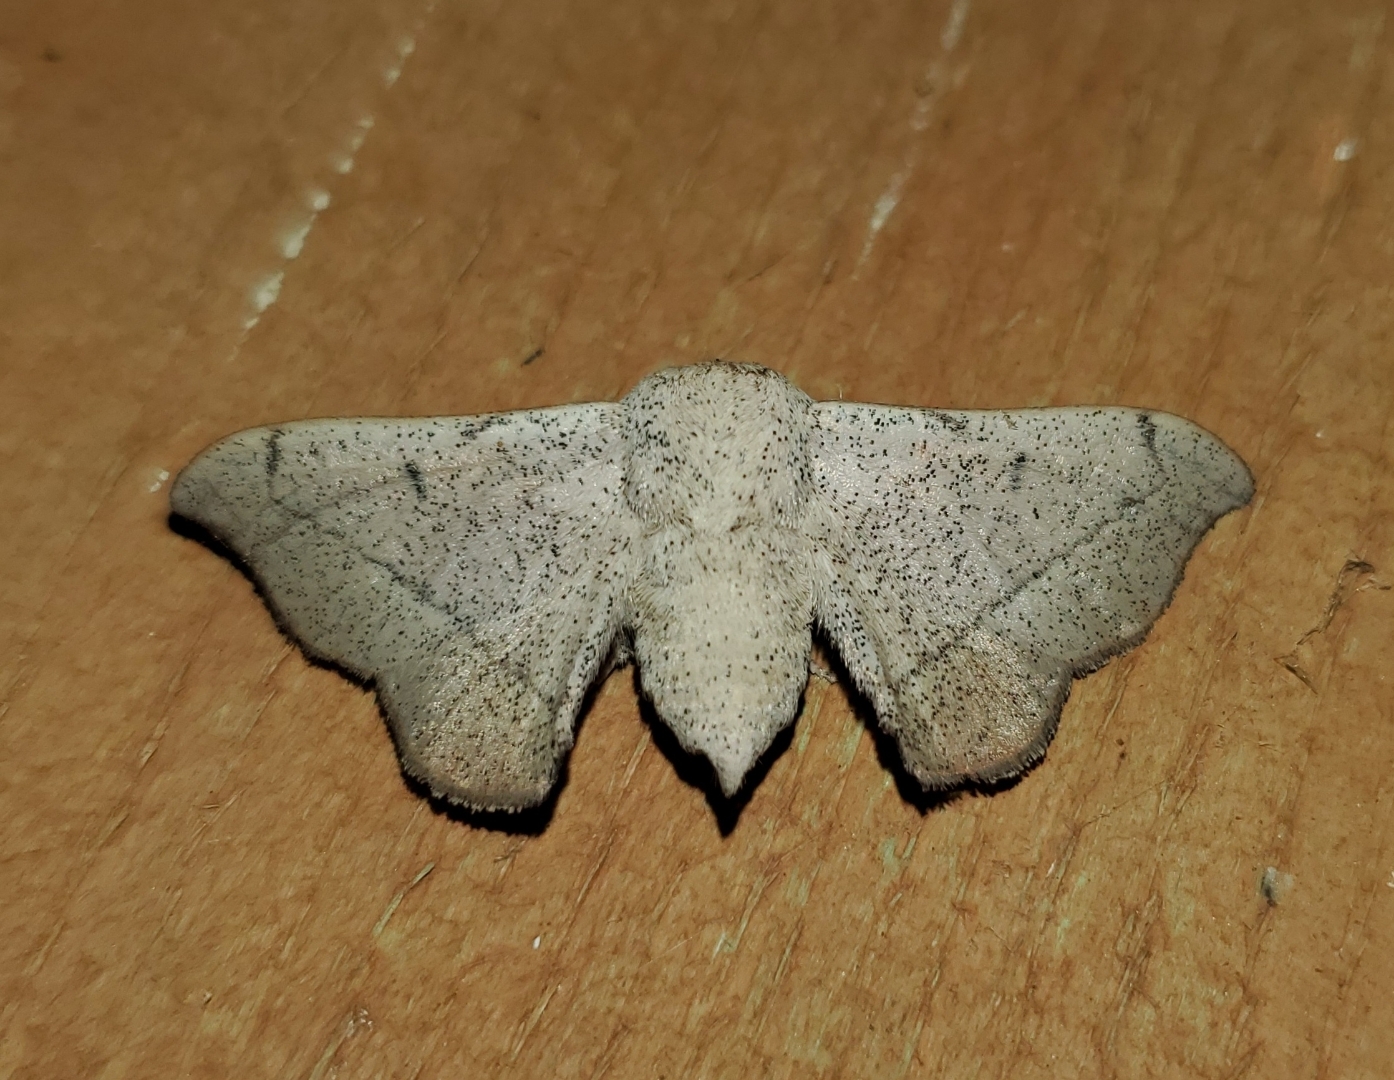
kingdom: Animalia
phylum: Arthropoda
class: Insecta
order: Lepidoptera
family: Mimallonidae
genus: Cicinnus
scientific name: Cicinnus melsheimeri
